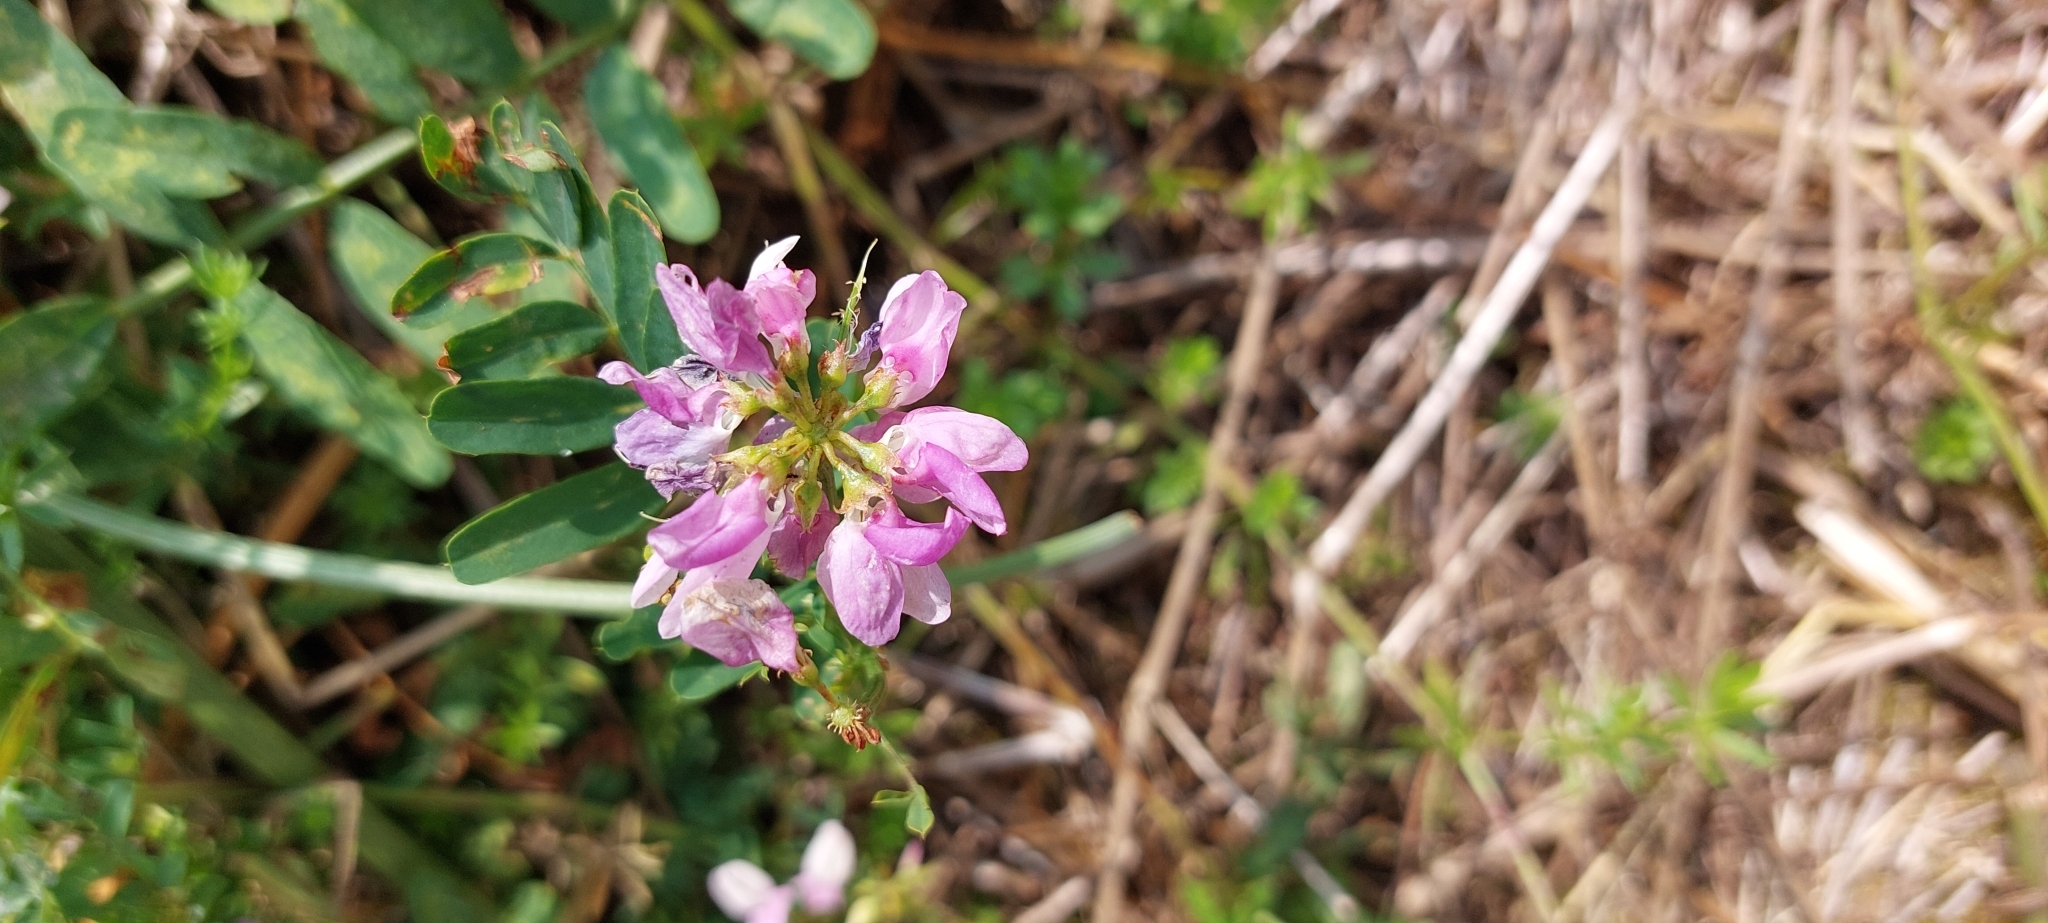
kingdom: Plantae
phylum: Tracheophyta
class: Magnoliopsida
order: Fabales
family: Fabaceae
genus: Coronilla
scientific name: Coronilla varia
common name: Crownvetch
